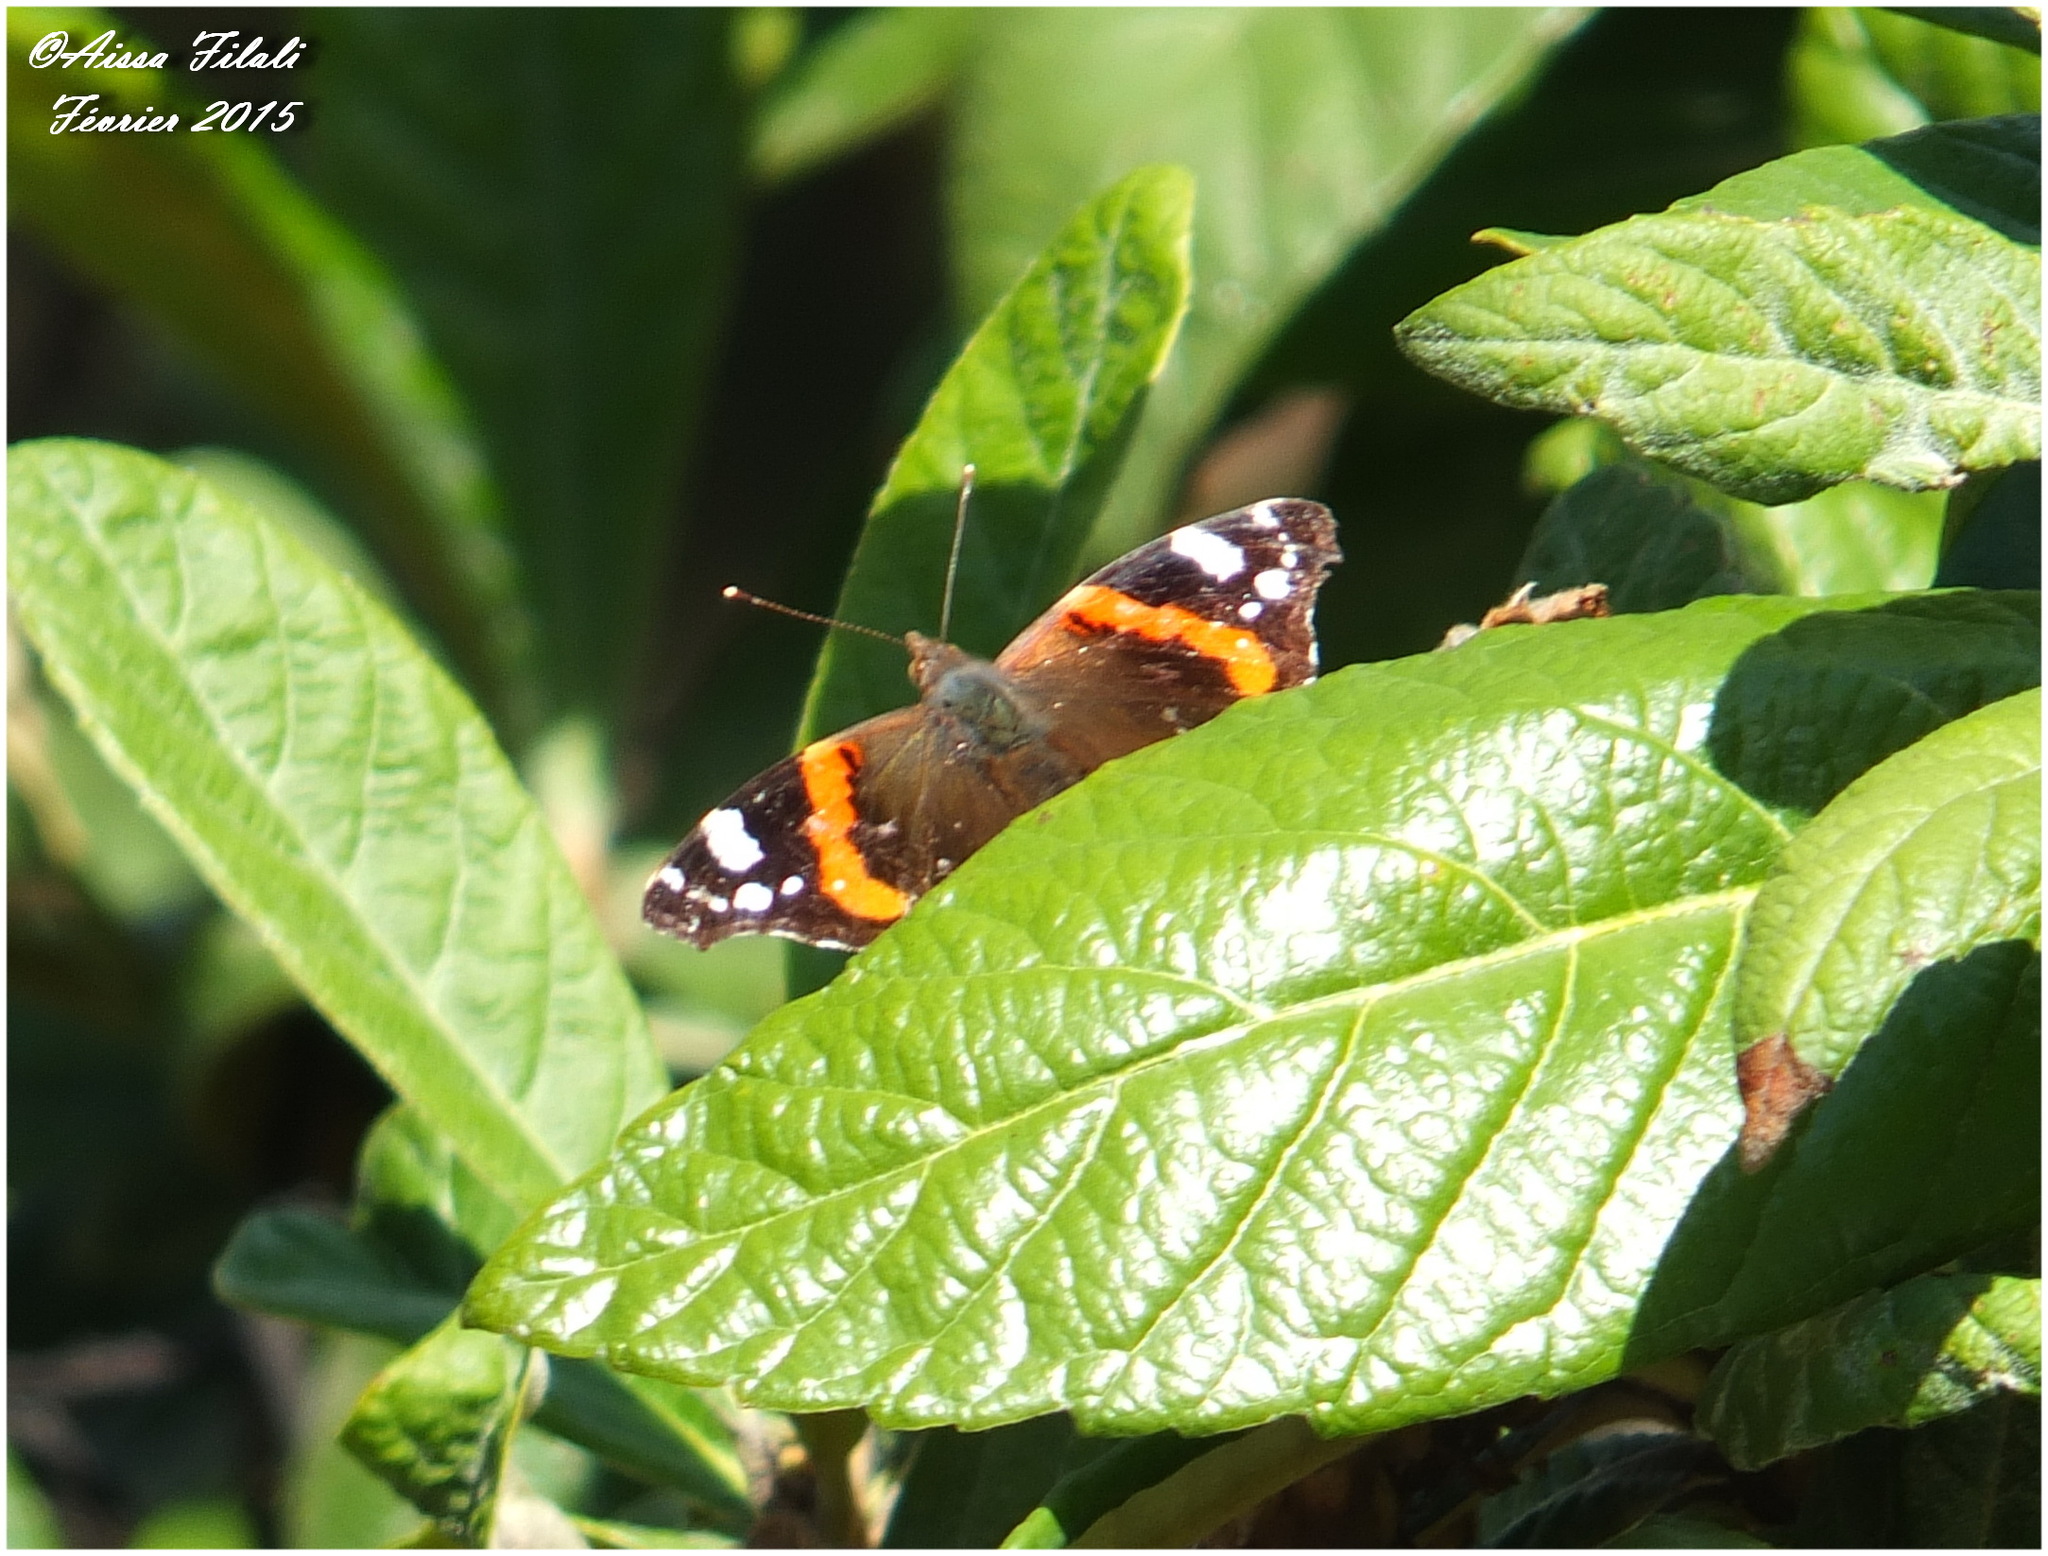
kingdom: Animalia
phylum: Arthropoda
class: Insecta
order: Lepidoptera
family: Nymphalidae
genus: Vanessa
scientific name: Vanessa atalanta
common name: Red admiral
